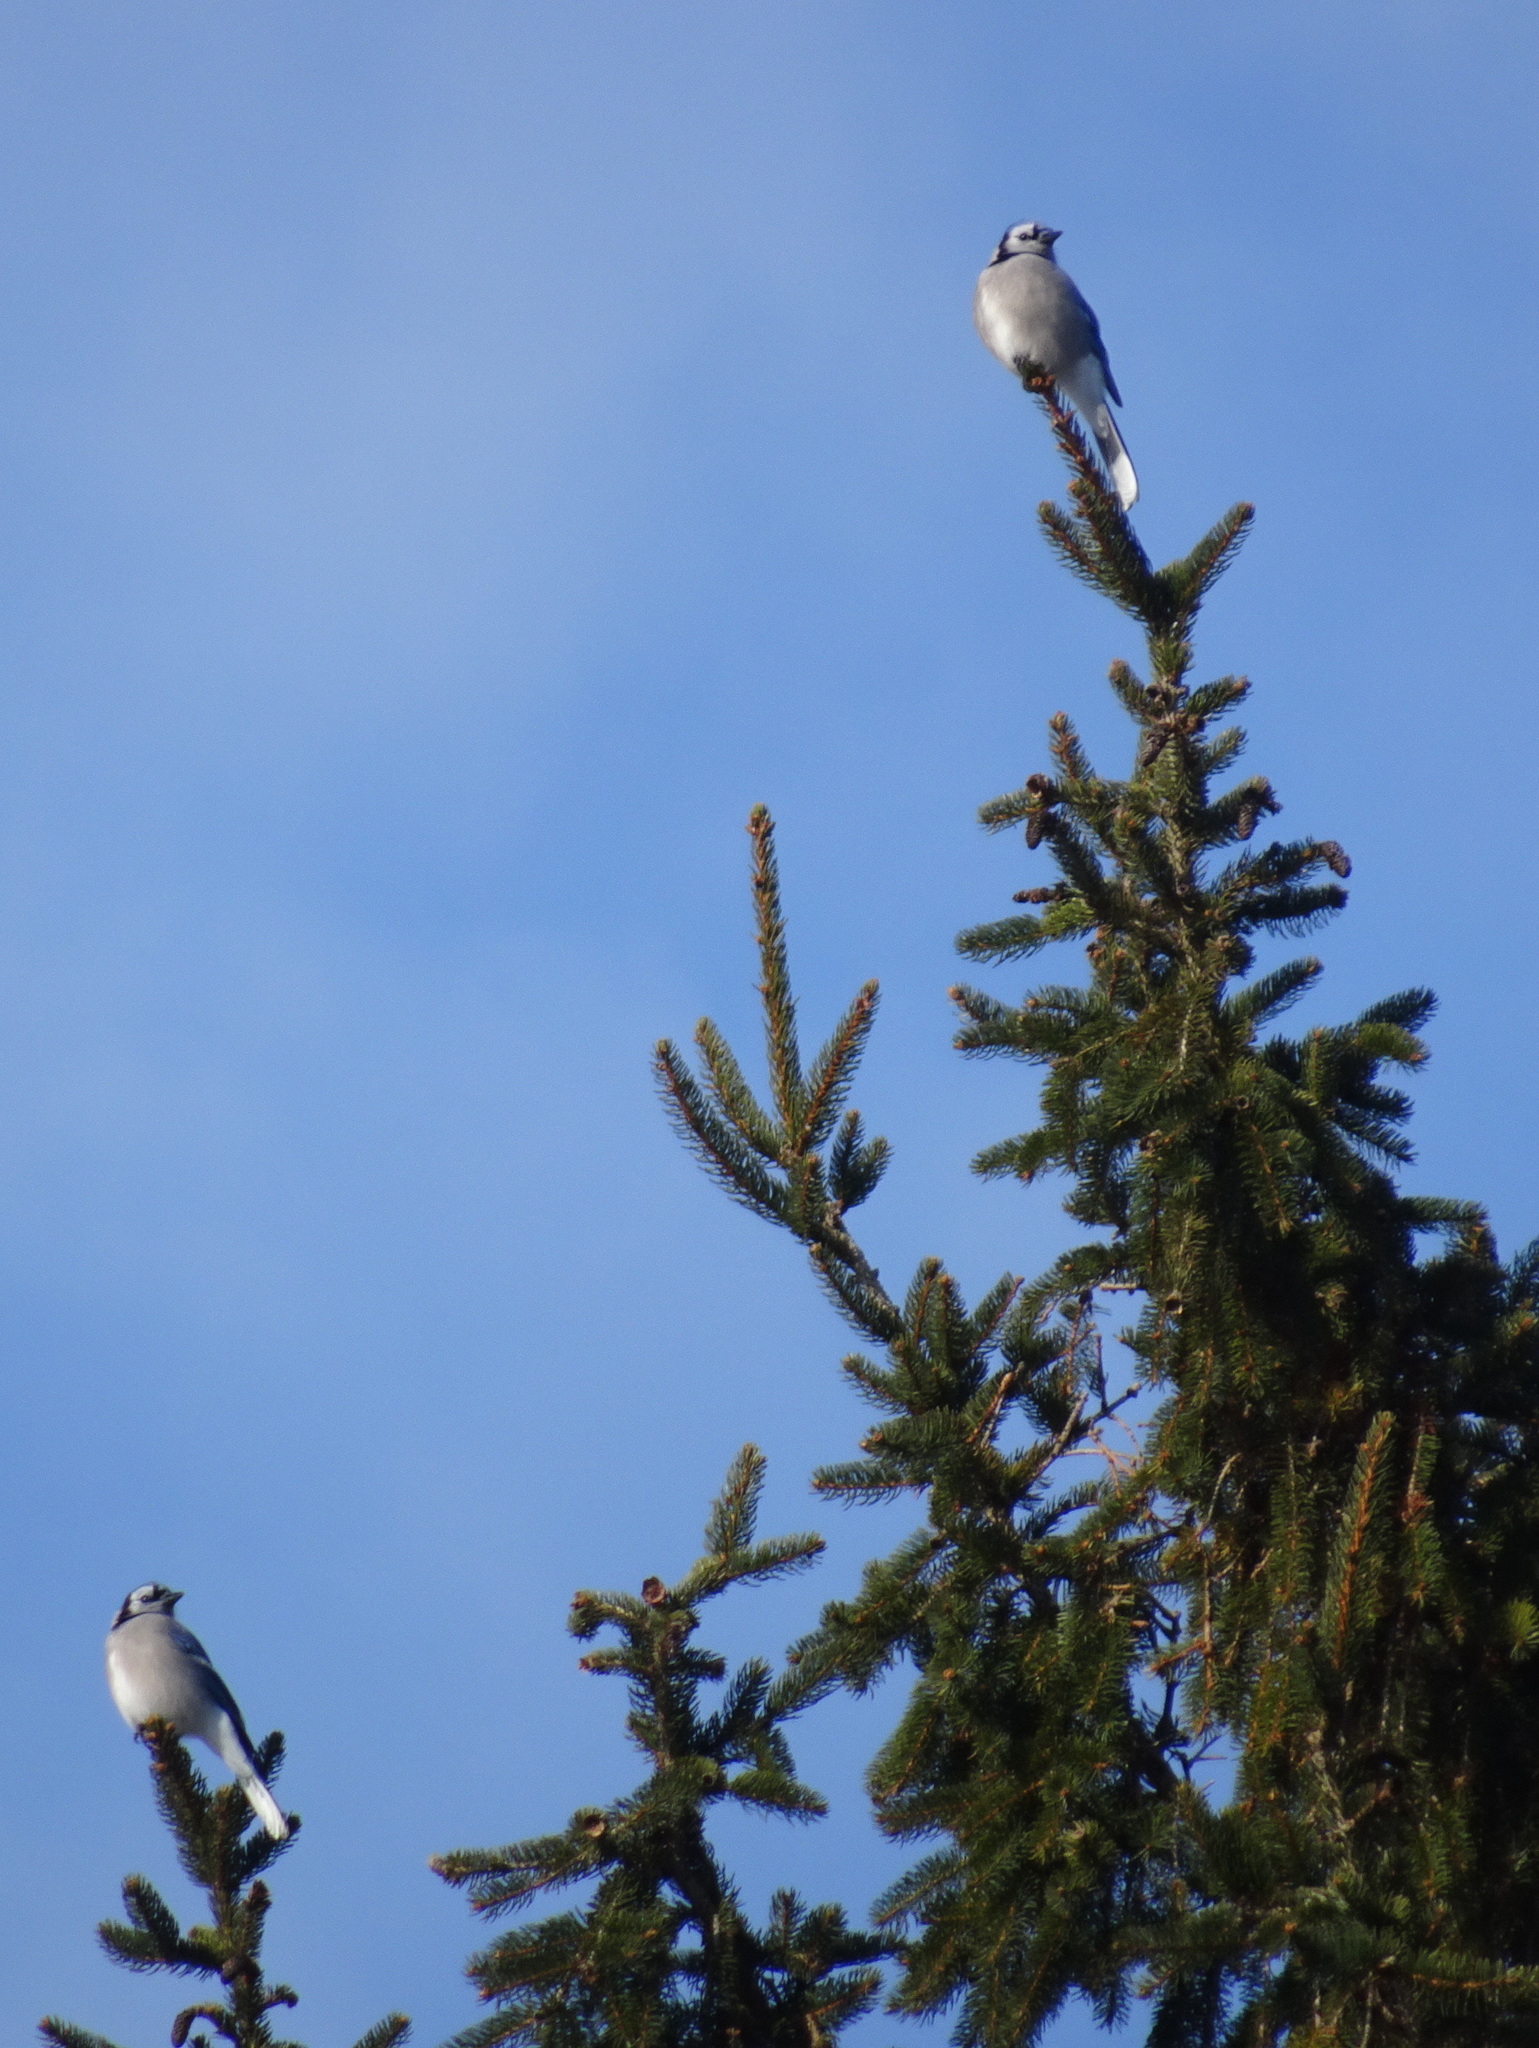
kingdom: Animalia
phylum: Chordata
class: Aves
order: Passeriformes
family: Corvidae
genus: Cyanocitta
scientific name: Cyanocitta cristata
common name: Blue jay
